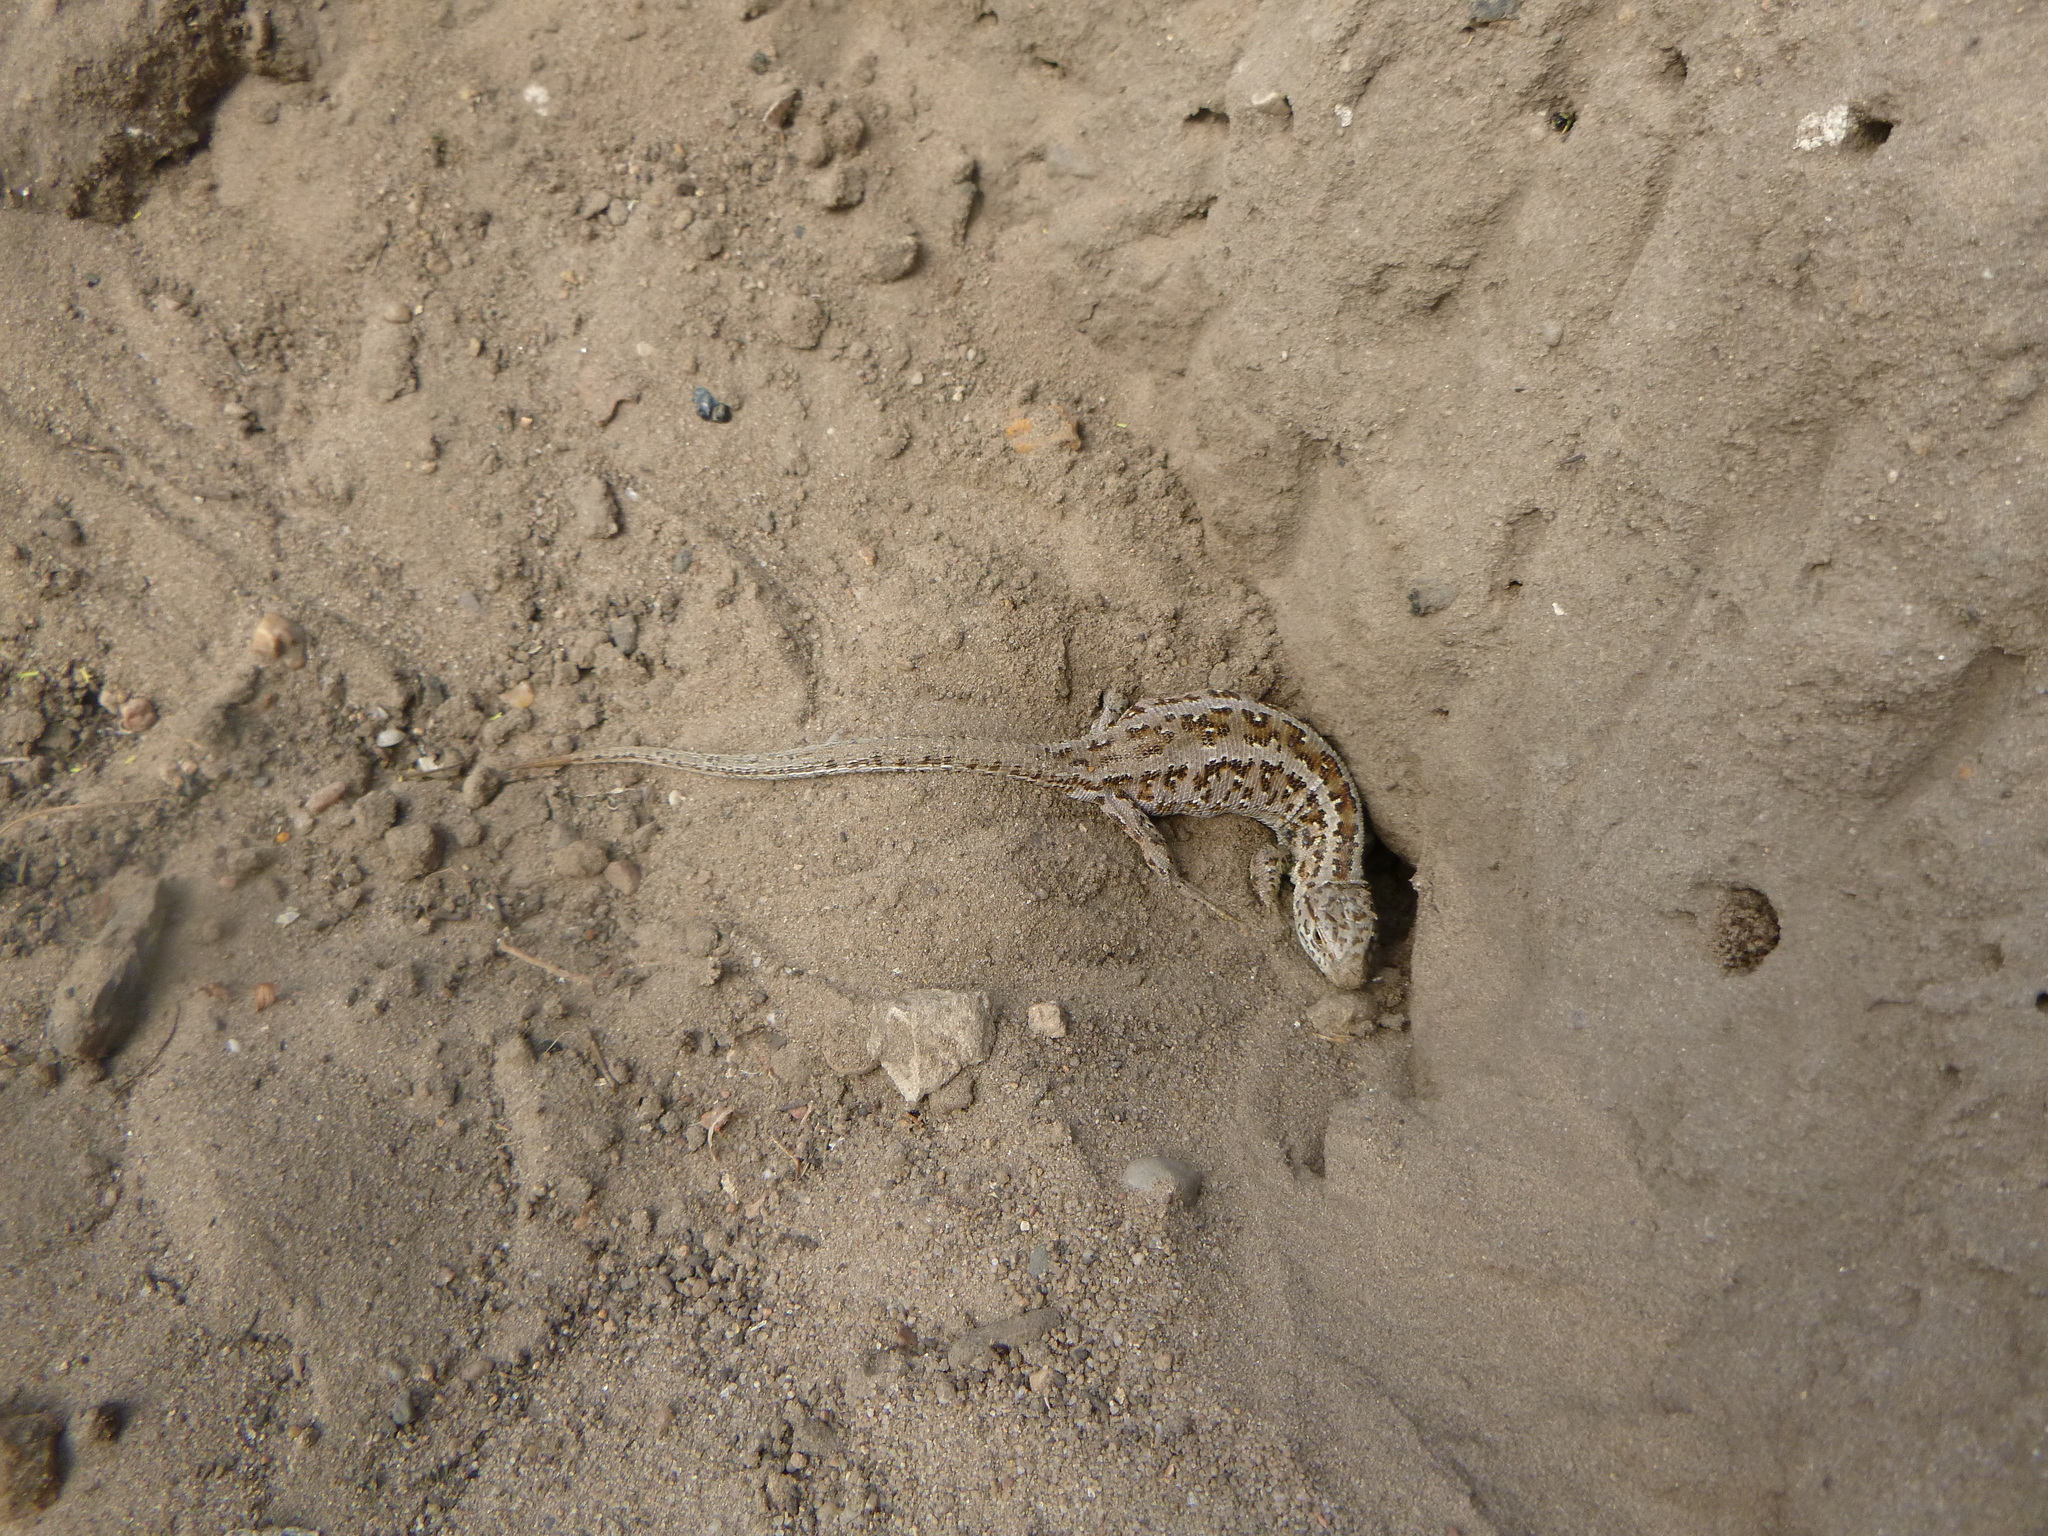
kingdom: Animalia
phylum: Chordata
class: Squamata
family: Lacertidae
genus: Lacerta
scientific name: Lacerta agilis
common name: Sand lizard
